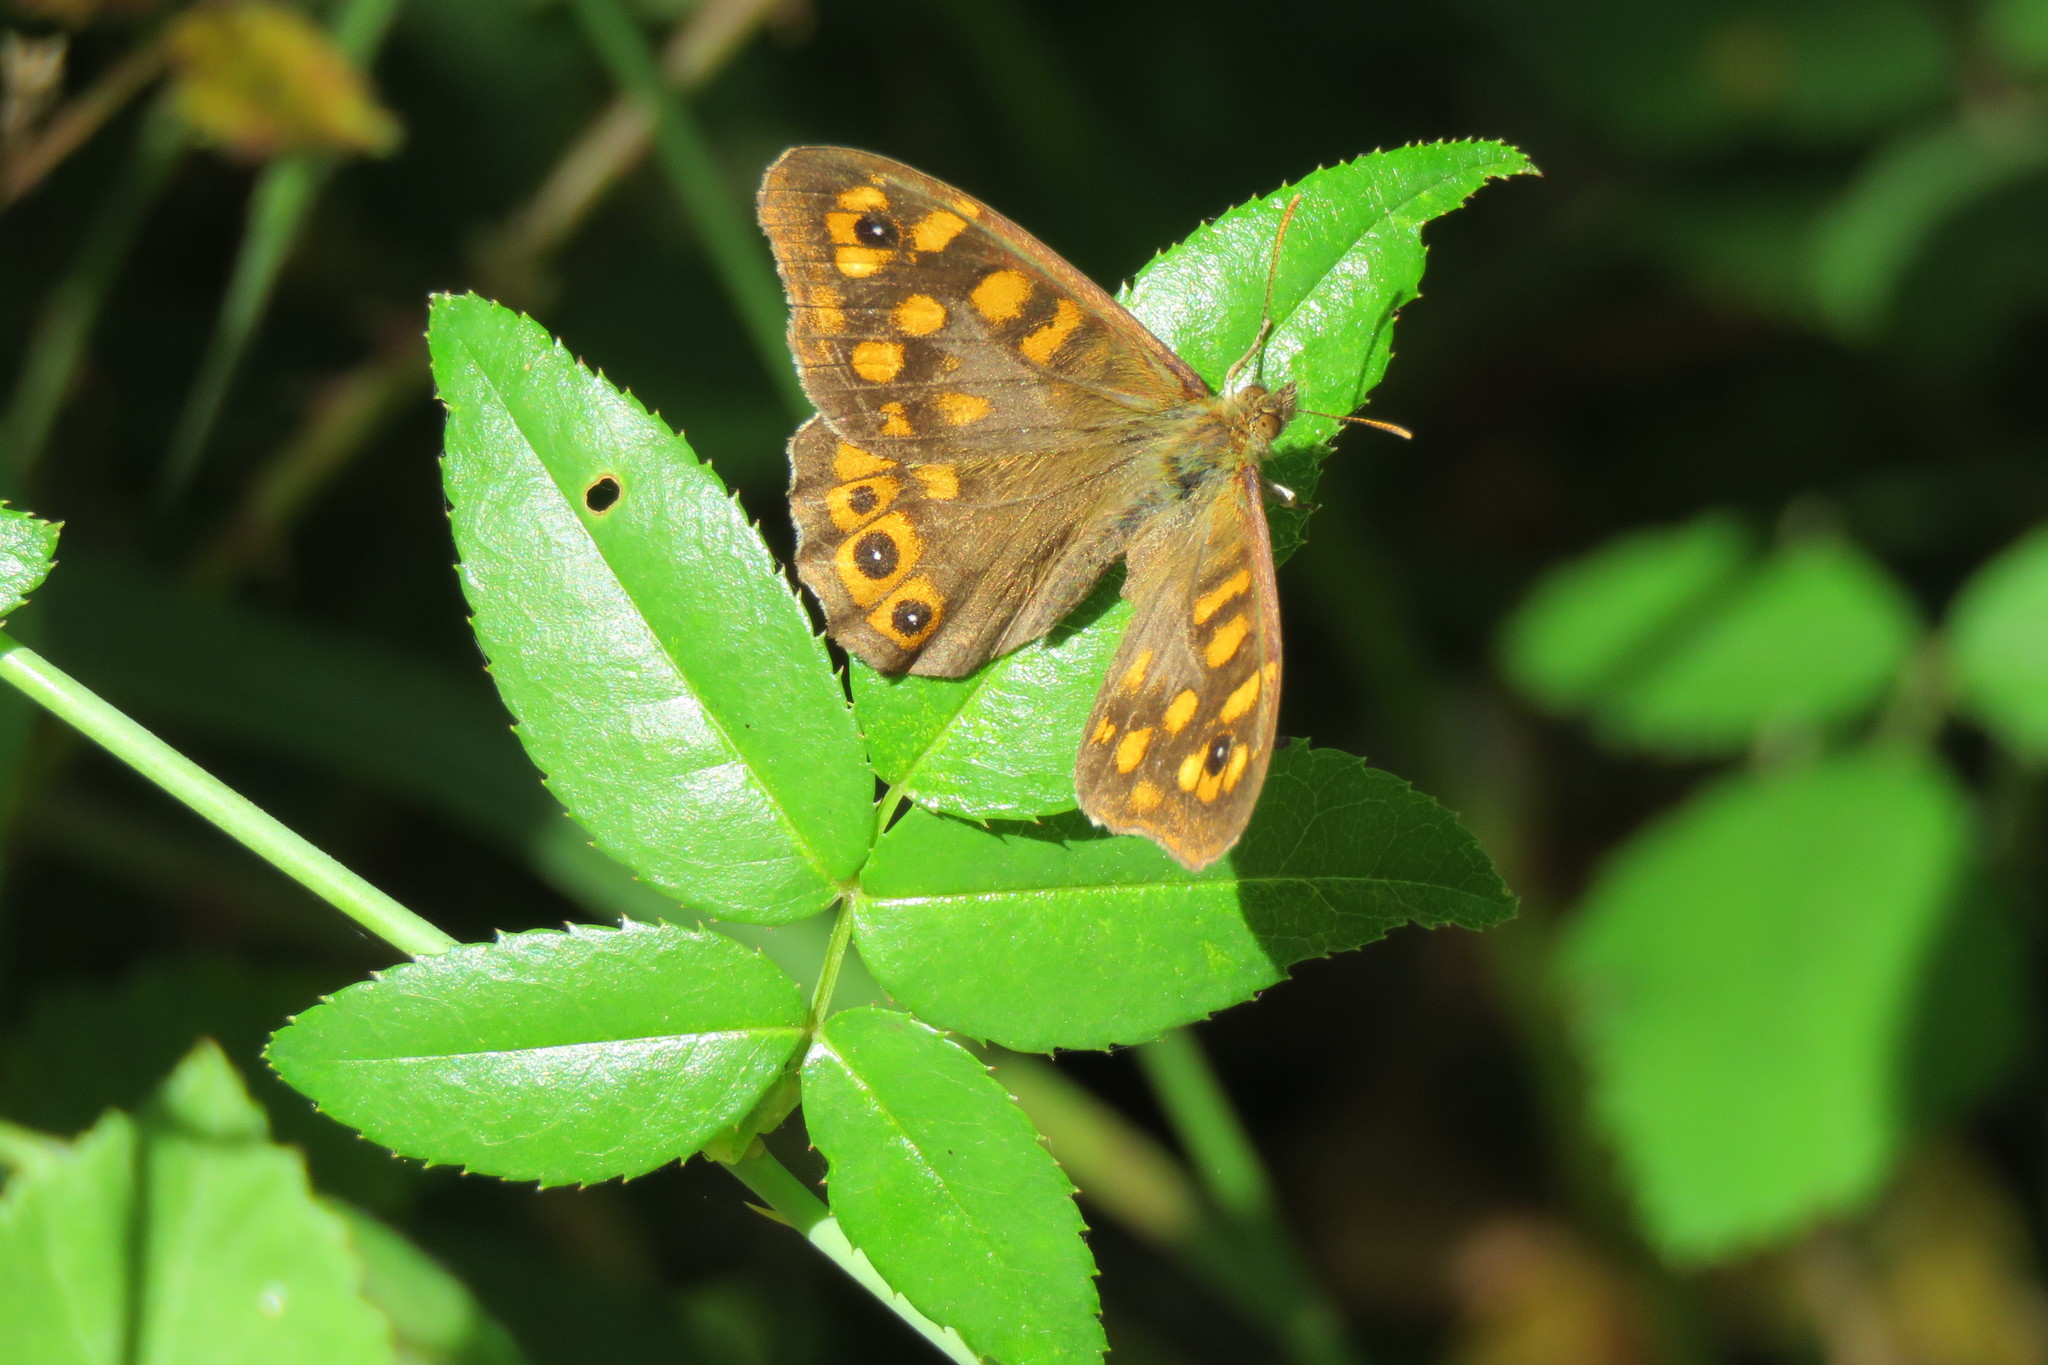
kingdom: Animalia
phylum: Arthropoda
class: Insecta
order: Lepidoptera
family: Nymphalidae
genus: Pararge
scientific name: Pararge aegeria
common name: Speckled wood
